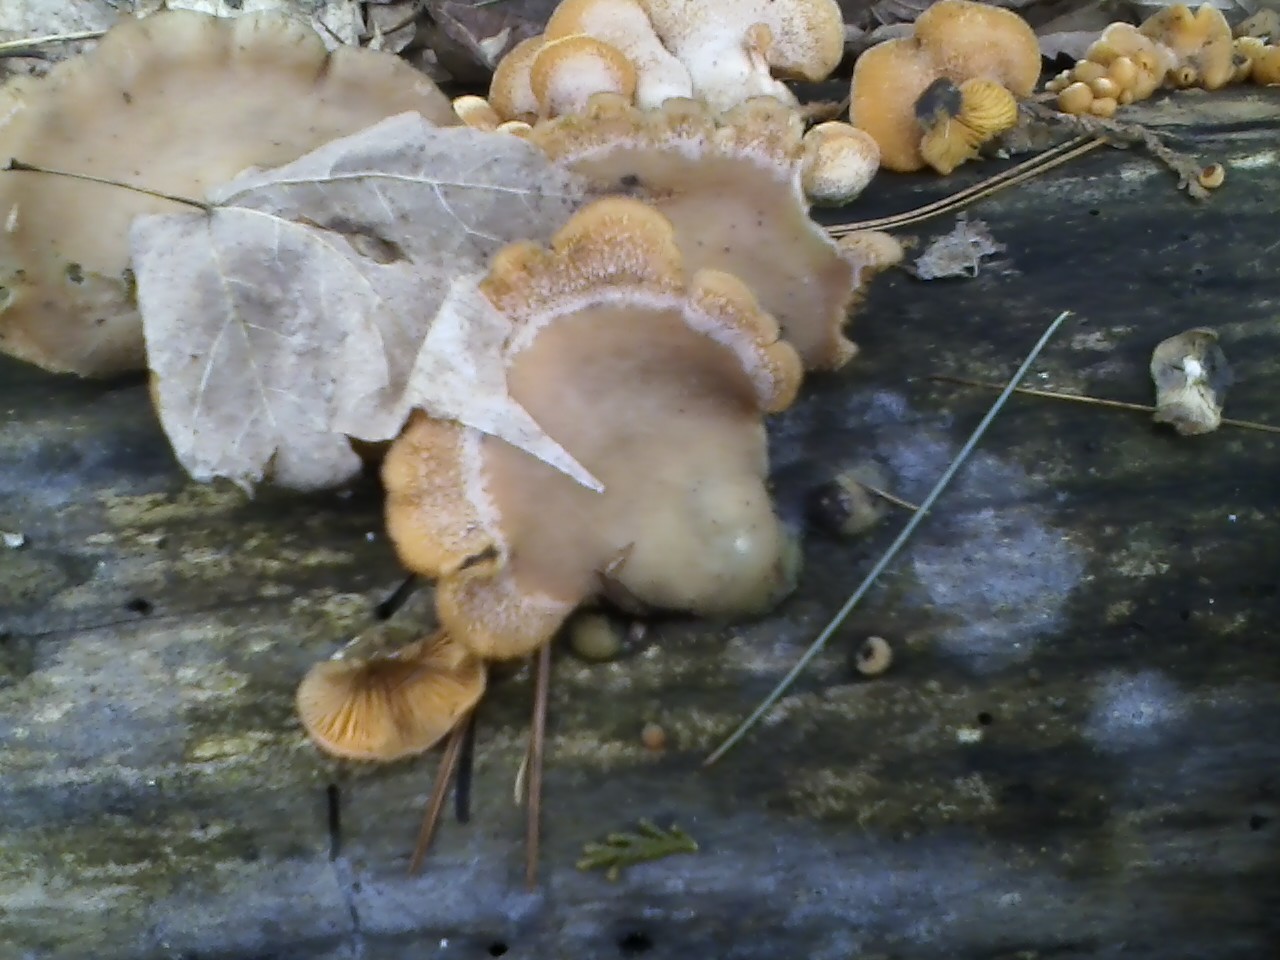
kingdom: Fungi
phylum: Basidiomycota
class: Agaricomycetes
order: Agaricales
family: Phyllotopsidaceae
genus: Phyllotopsis
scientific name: Phyllotopsis nidulans
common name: Orange mock oyster
